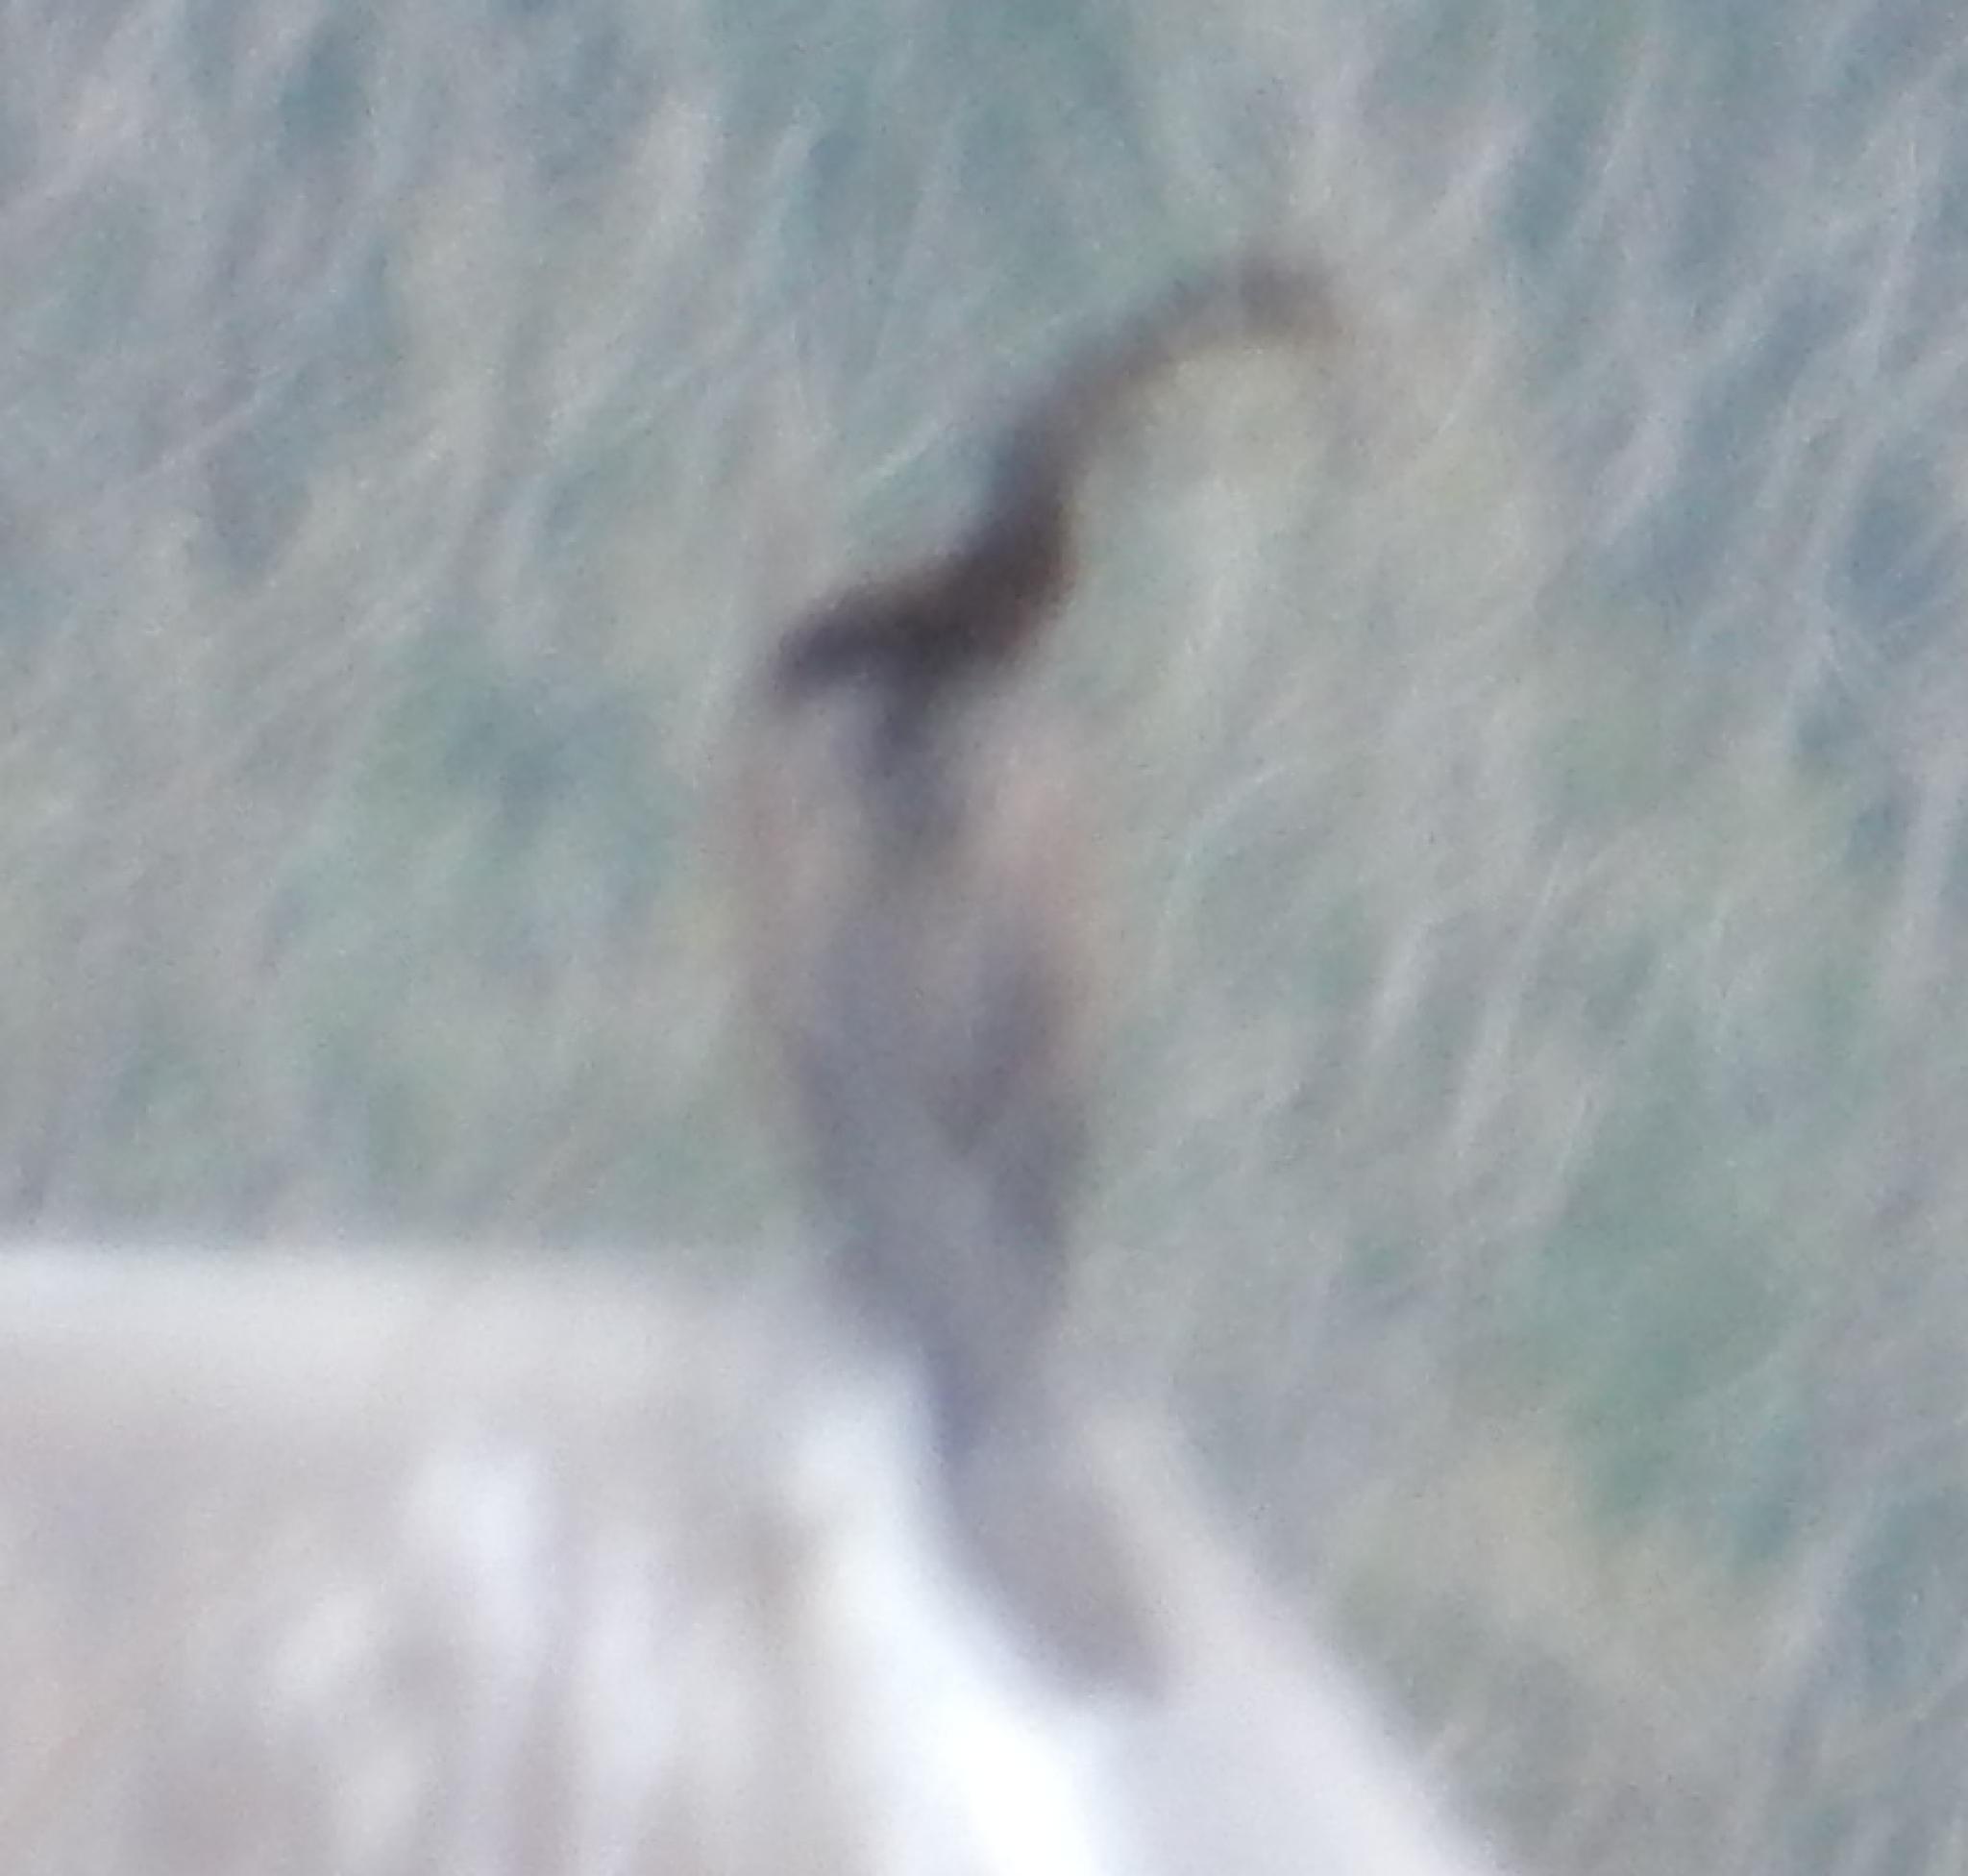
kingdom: Animalia
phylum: Chordata
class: Aves
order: Suliformes
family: Anhingidae
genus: Anhinga
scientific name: Anhinga rufa
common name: African darter
